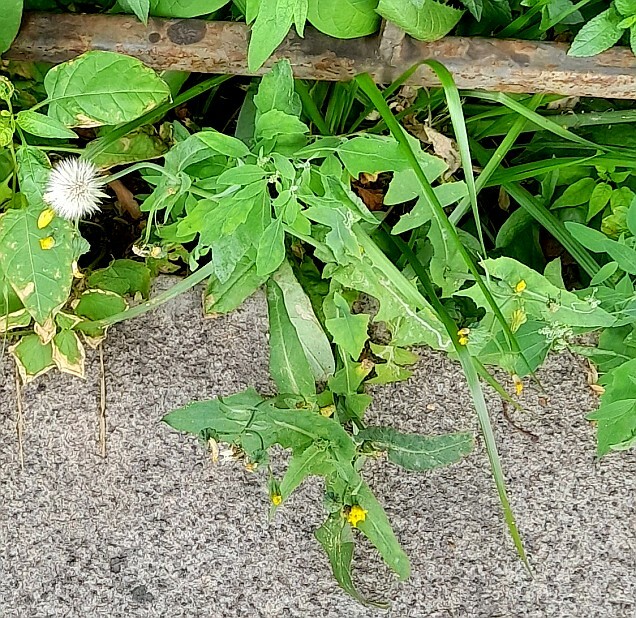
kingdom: Plantae
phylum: Tracheophyta
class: Magnoliopsida
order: Asterales
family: Asteraceae
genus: Sonchus
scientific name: Sonchus oleraceus
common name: Common sowthistle
